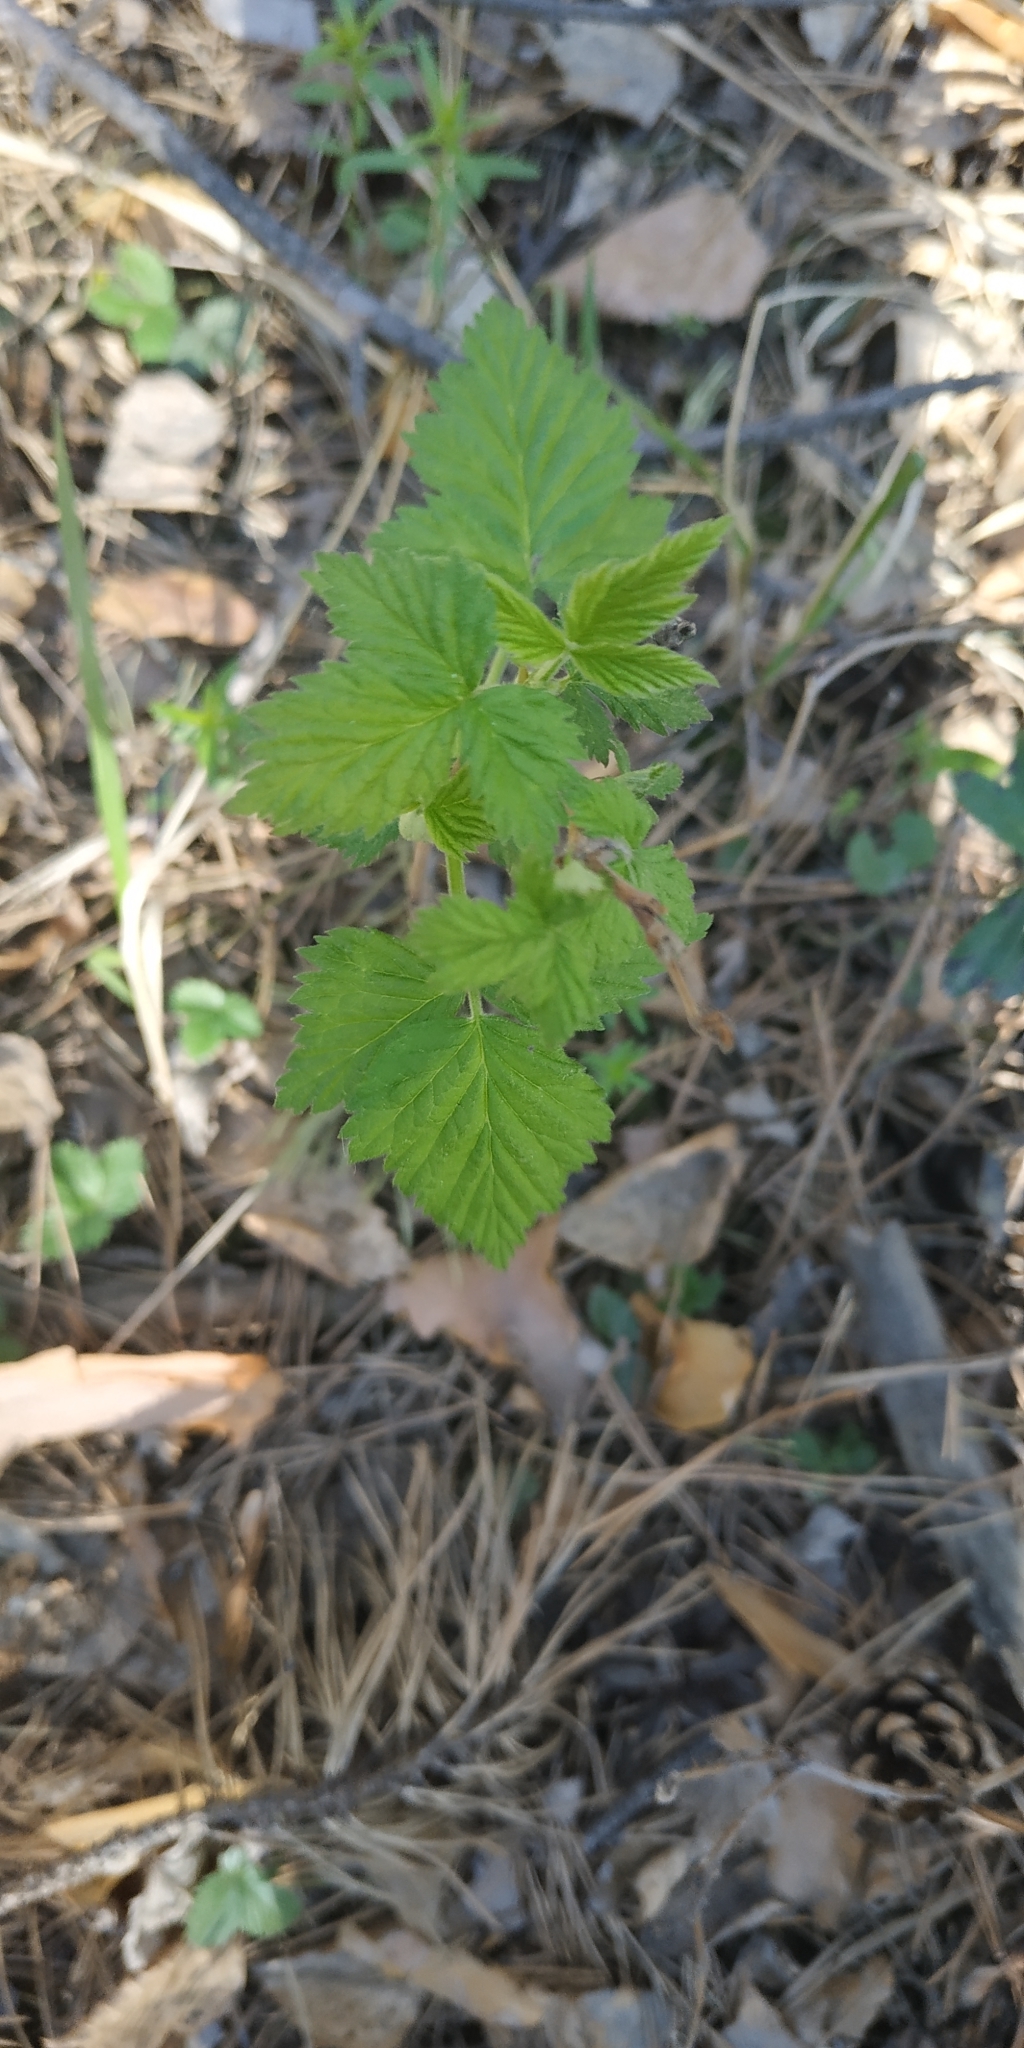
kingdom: Plantae
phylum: Tracheophyta
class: Magnoliopsida
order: Rosales
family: Rosaceae
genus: Rubus
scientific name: Rubus idaeus
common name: Raspberry
